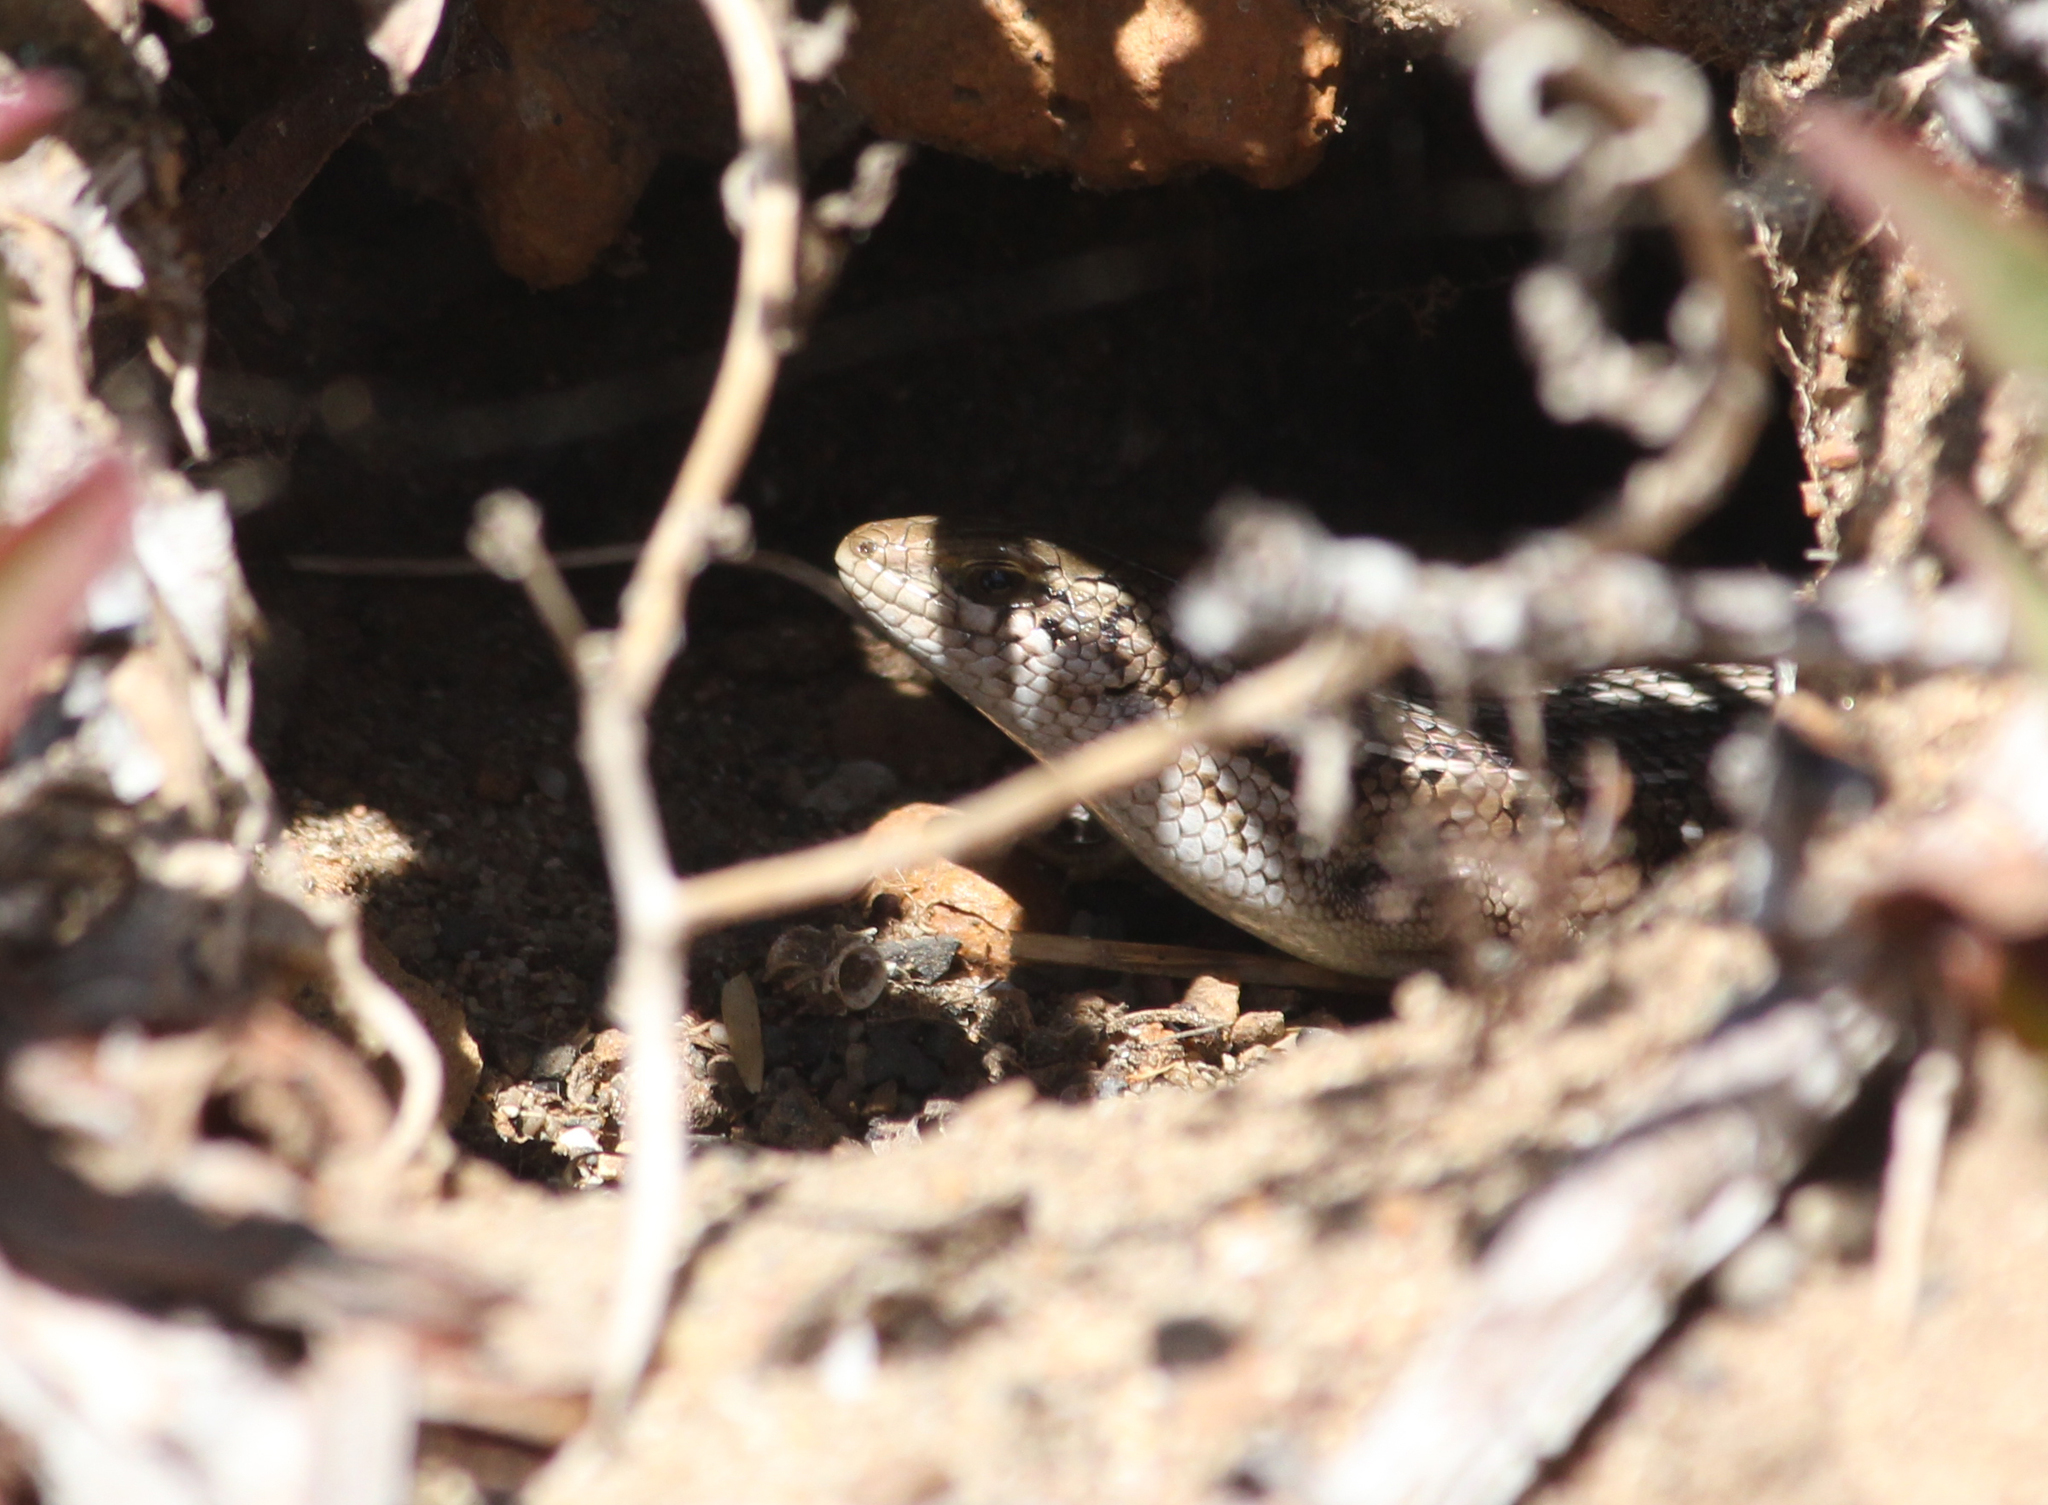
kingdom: Animalia
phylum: Chordata
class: Squamata
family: Scincidae
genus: Trachylepis
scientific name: Trachylepis capensis
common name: Cape skink
